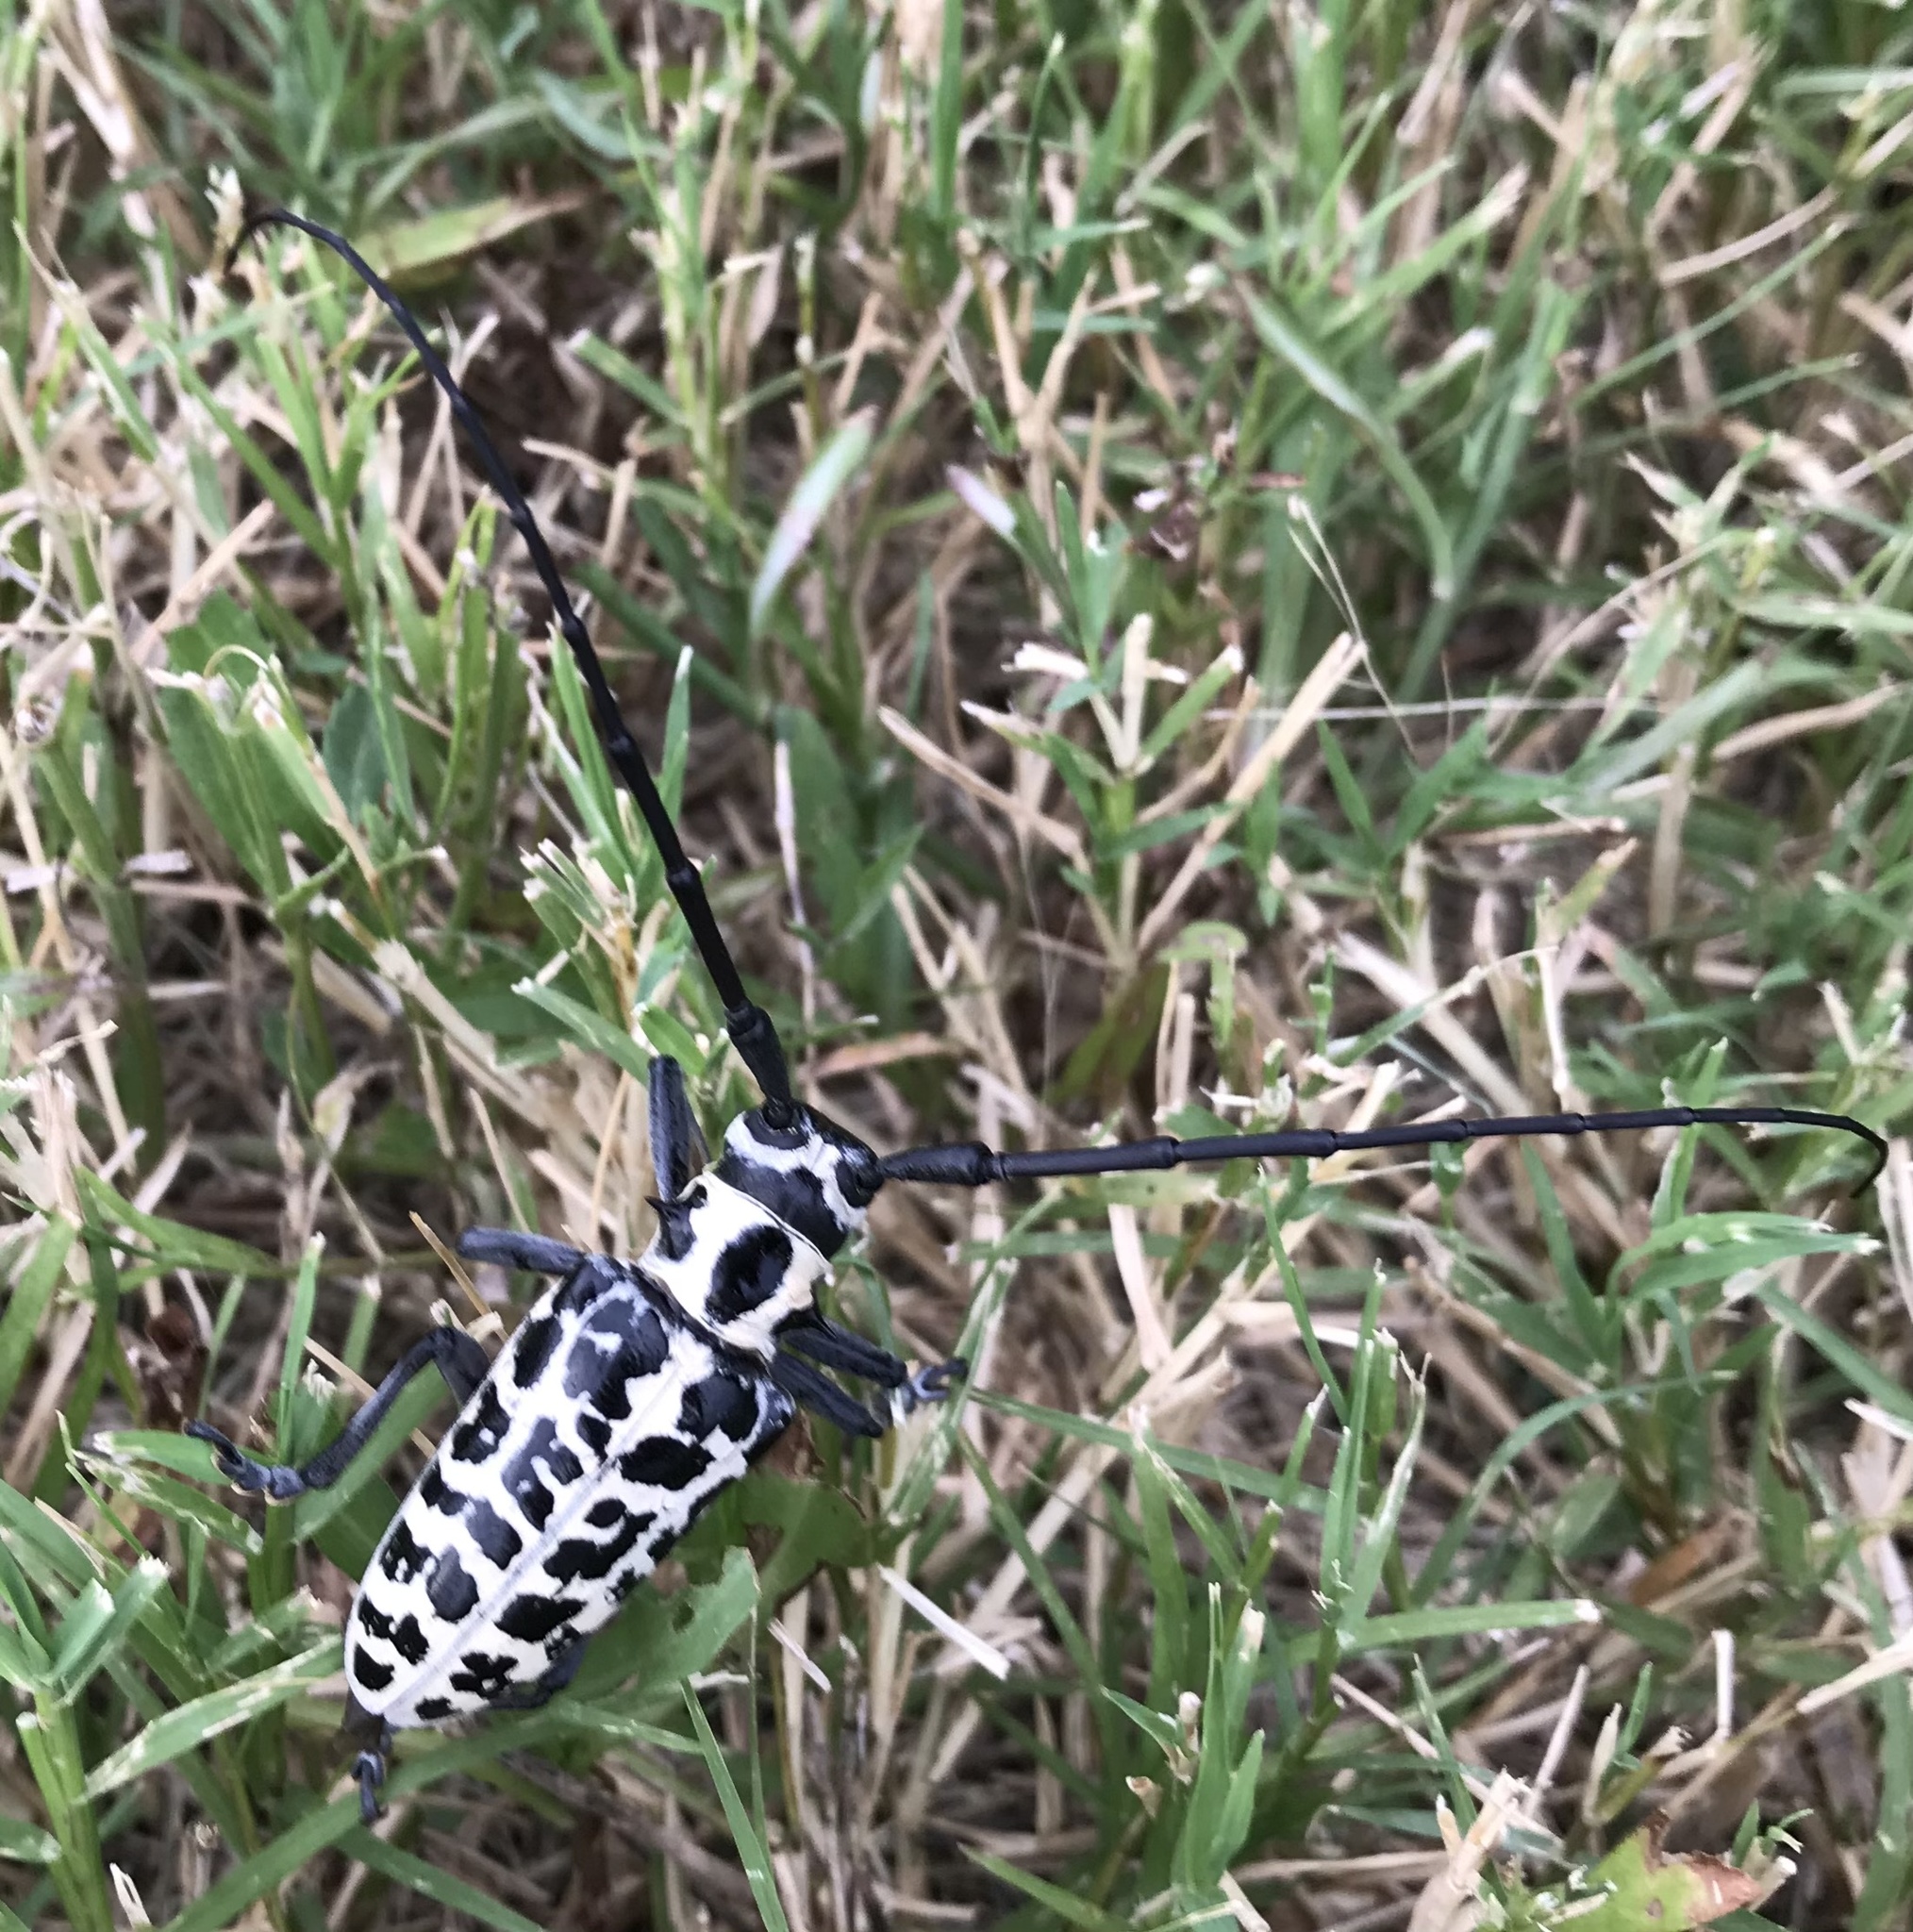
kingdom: Animalia
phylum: Arthropoda
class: Insecta
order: Coleoptera
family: Cerambycidae
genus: Plectrodera
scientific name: Plectrodera scalator
